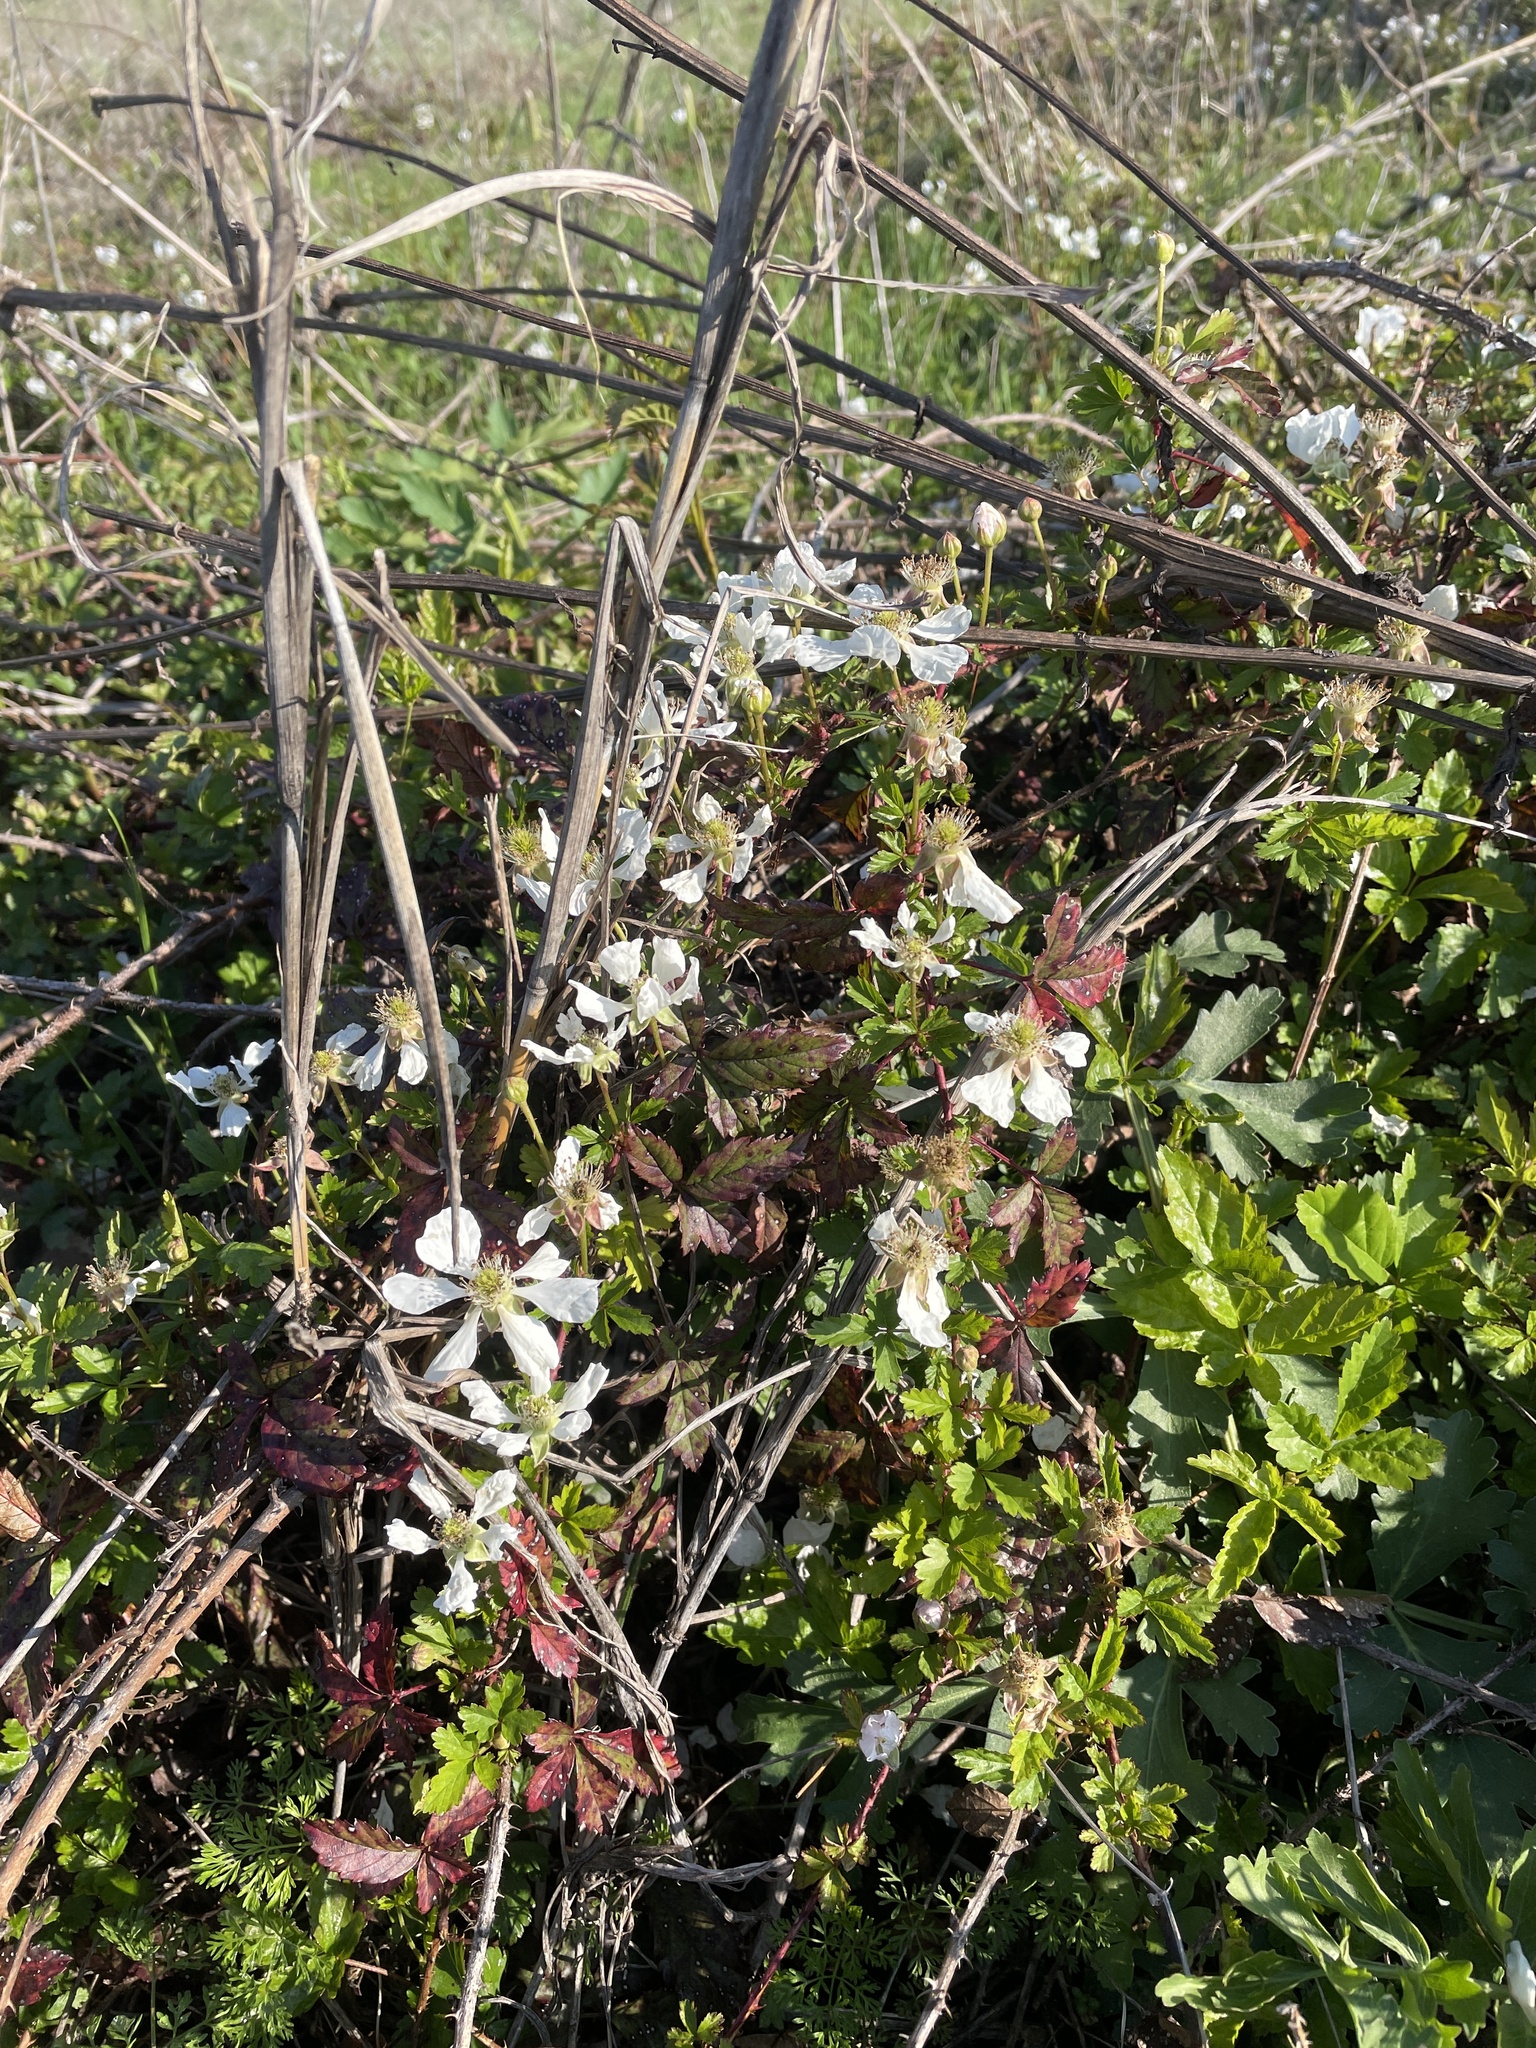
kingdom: Plantae
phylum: Tracheophyta
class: Magnoliopsida
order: Rosales
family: Rosaceae
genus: Rubus
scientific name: Rubus trivialis
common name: Southern dewberry
